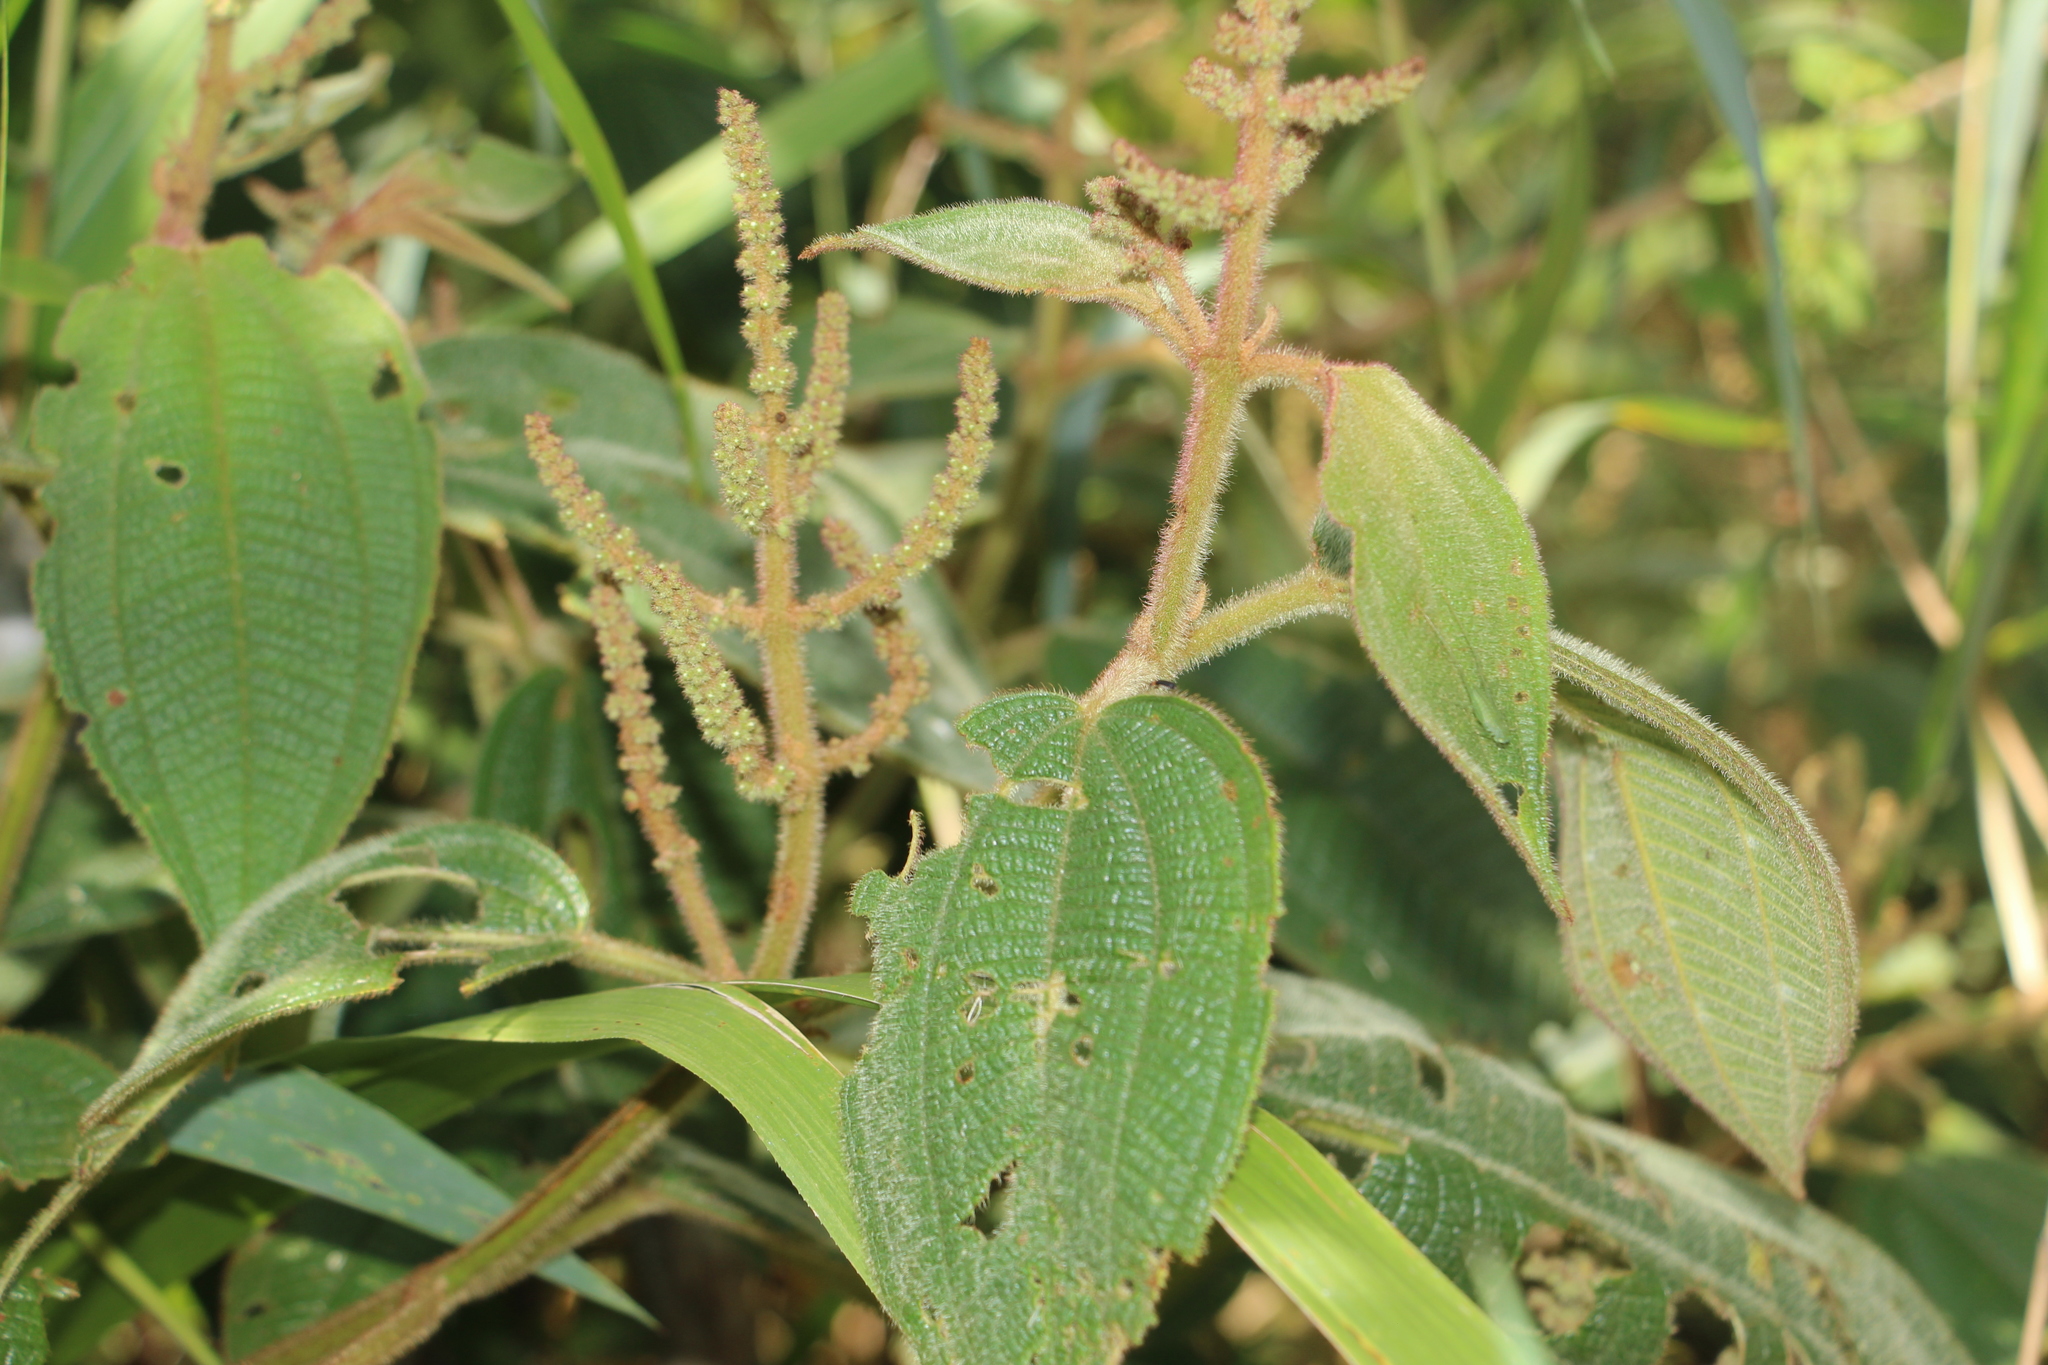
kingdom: Plantae
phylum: Tracheophyta
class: Magnoliopsida
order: Myrtales
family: Melastomataceae
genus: Miconia
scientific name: Miconia aeruginosa
